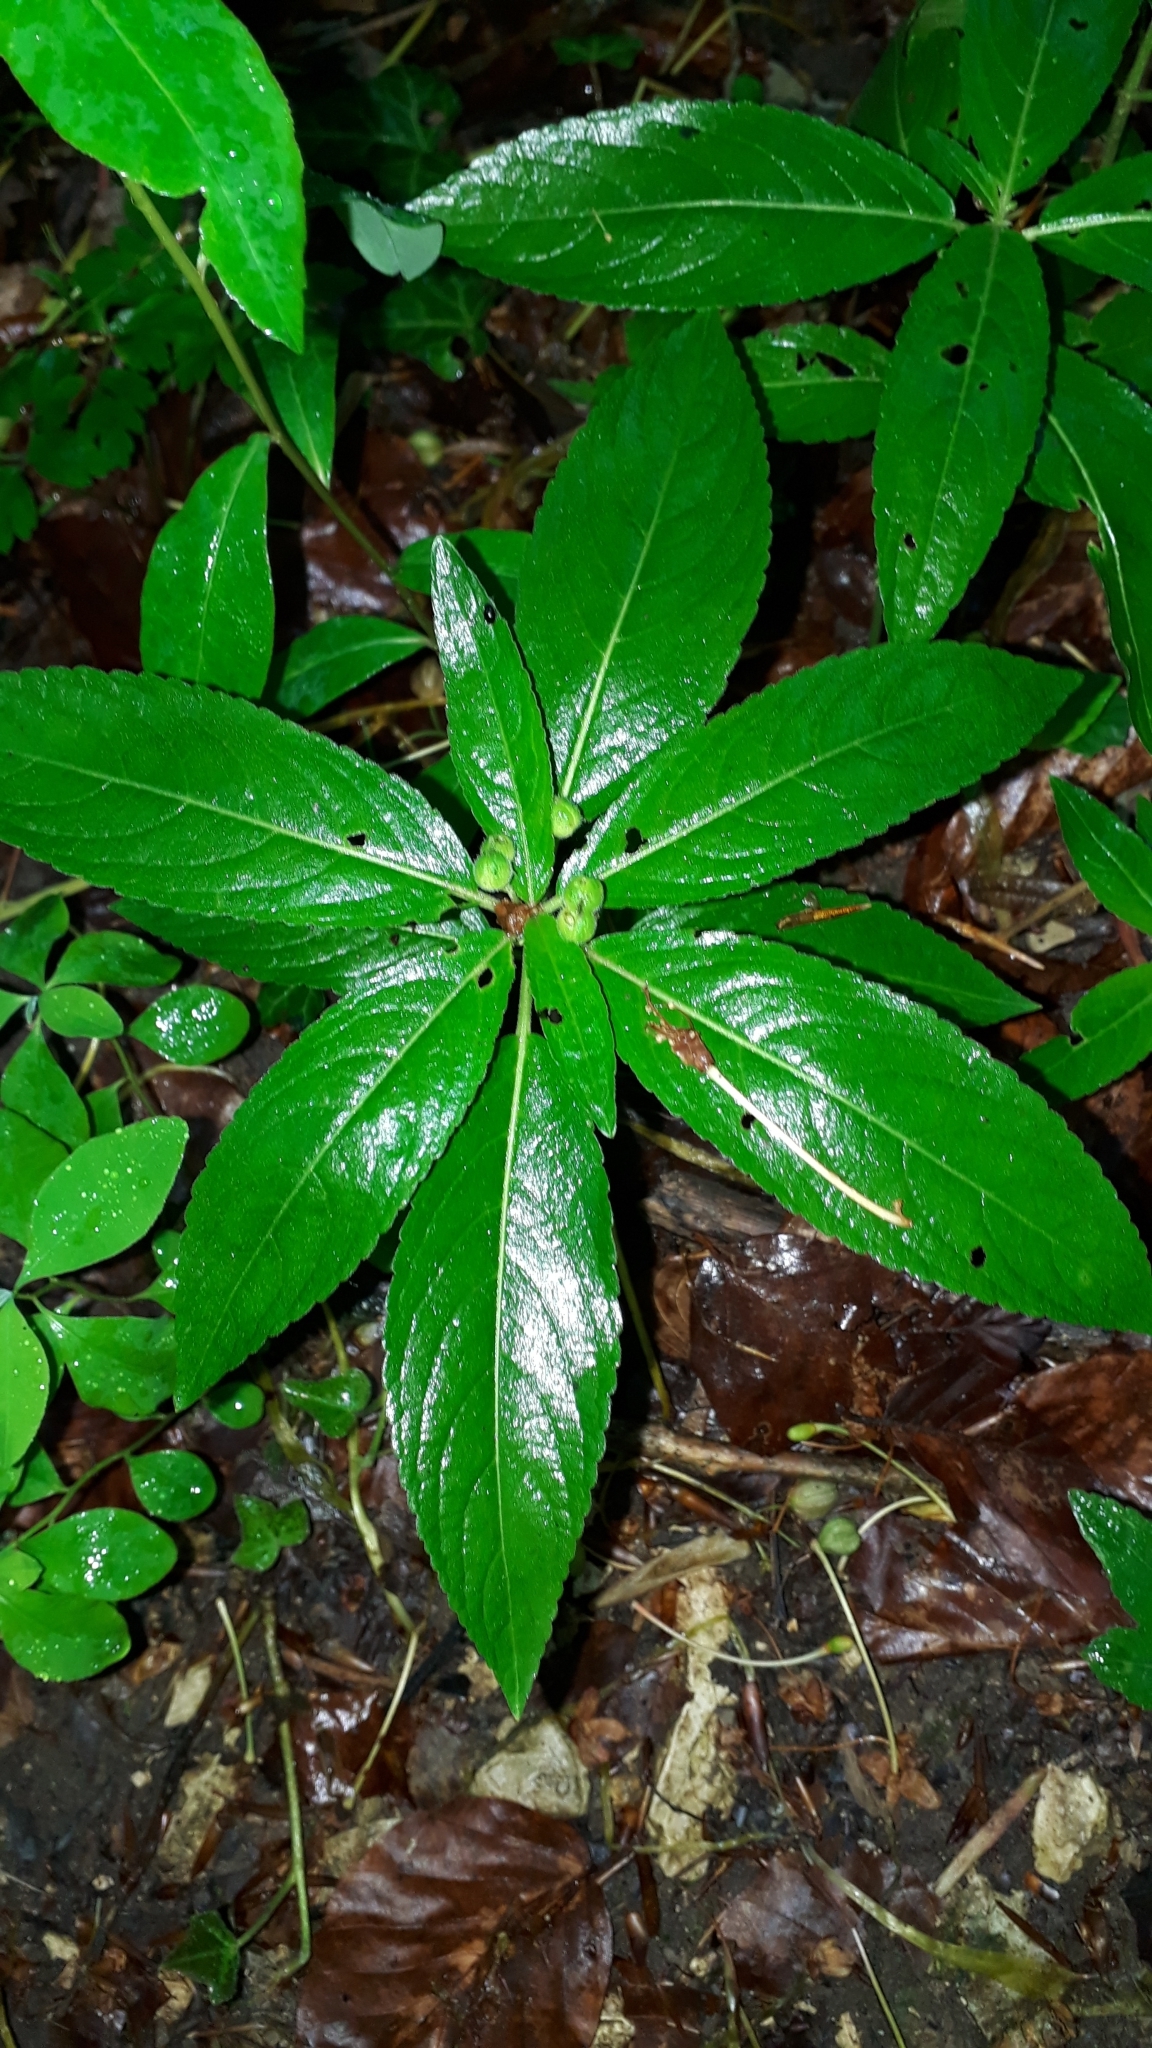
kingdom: Plantae
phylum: Tracheophyta
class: Magnoliopsida
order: Malpighiales
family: Euphorbiaceae
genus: Mercurialis
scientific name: Mercurialis perennis
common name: Dog mercury
